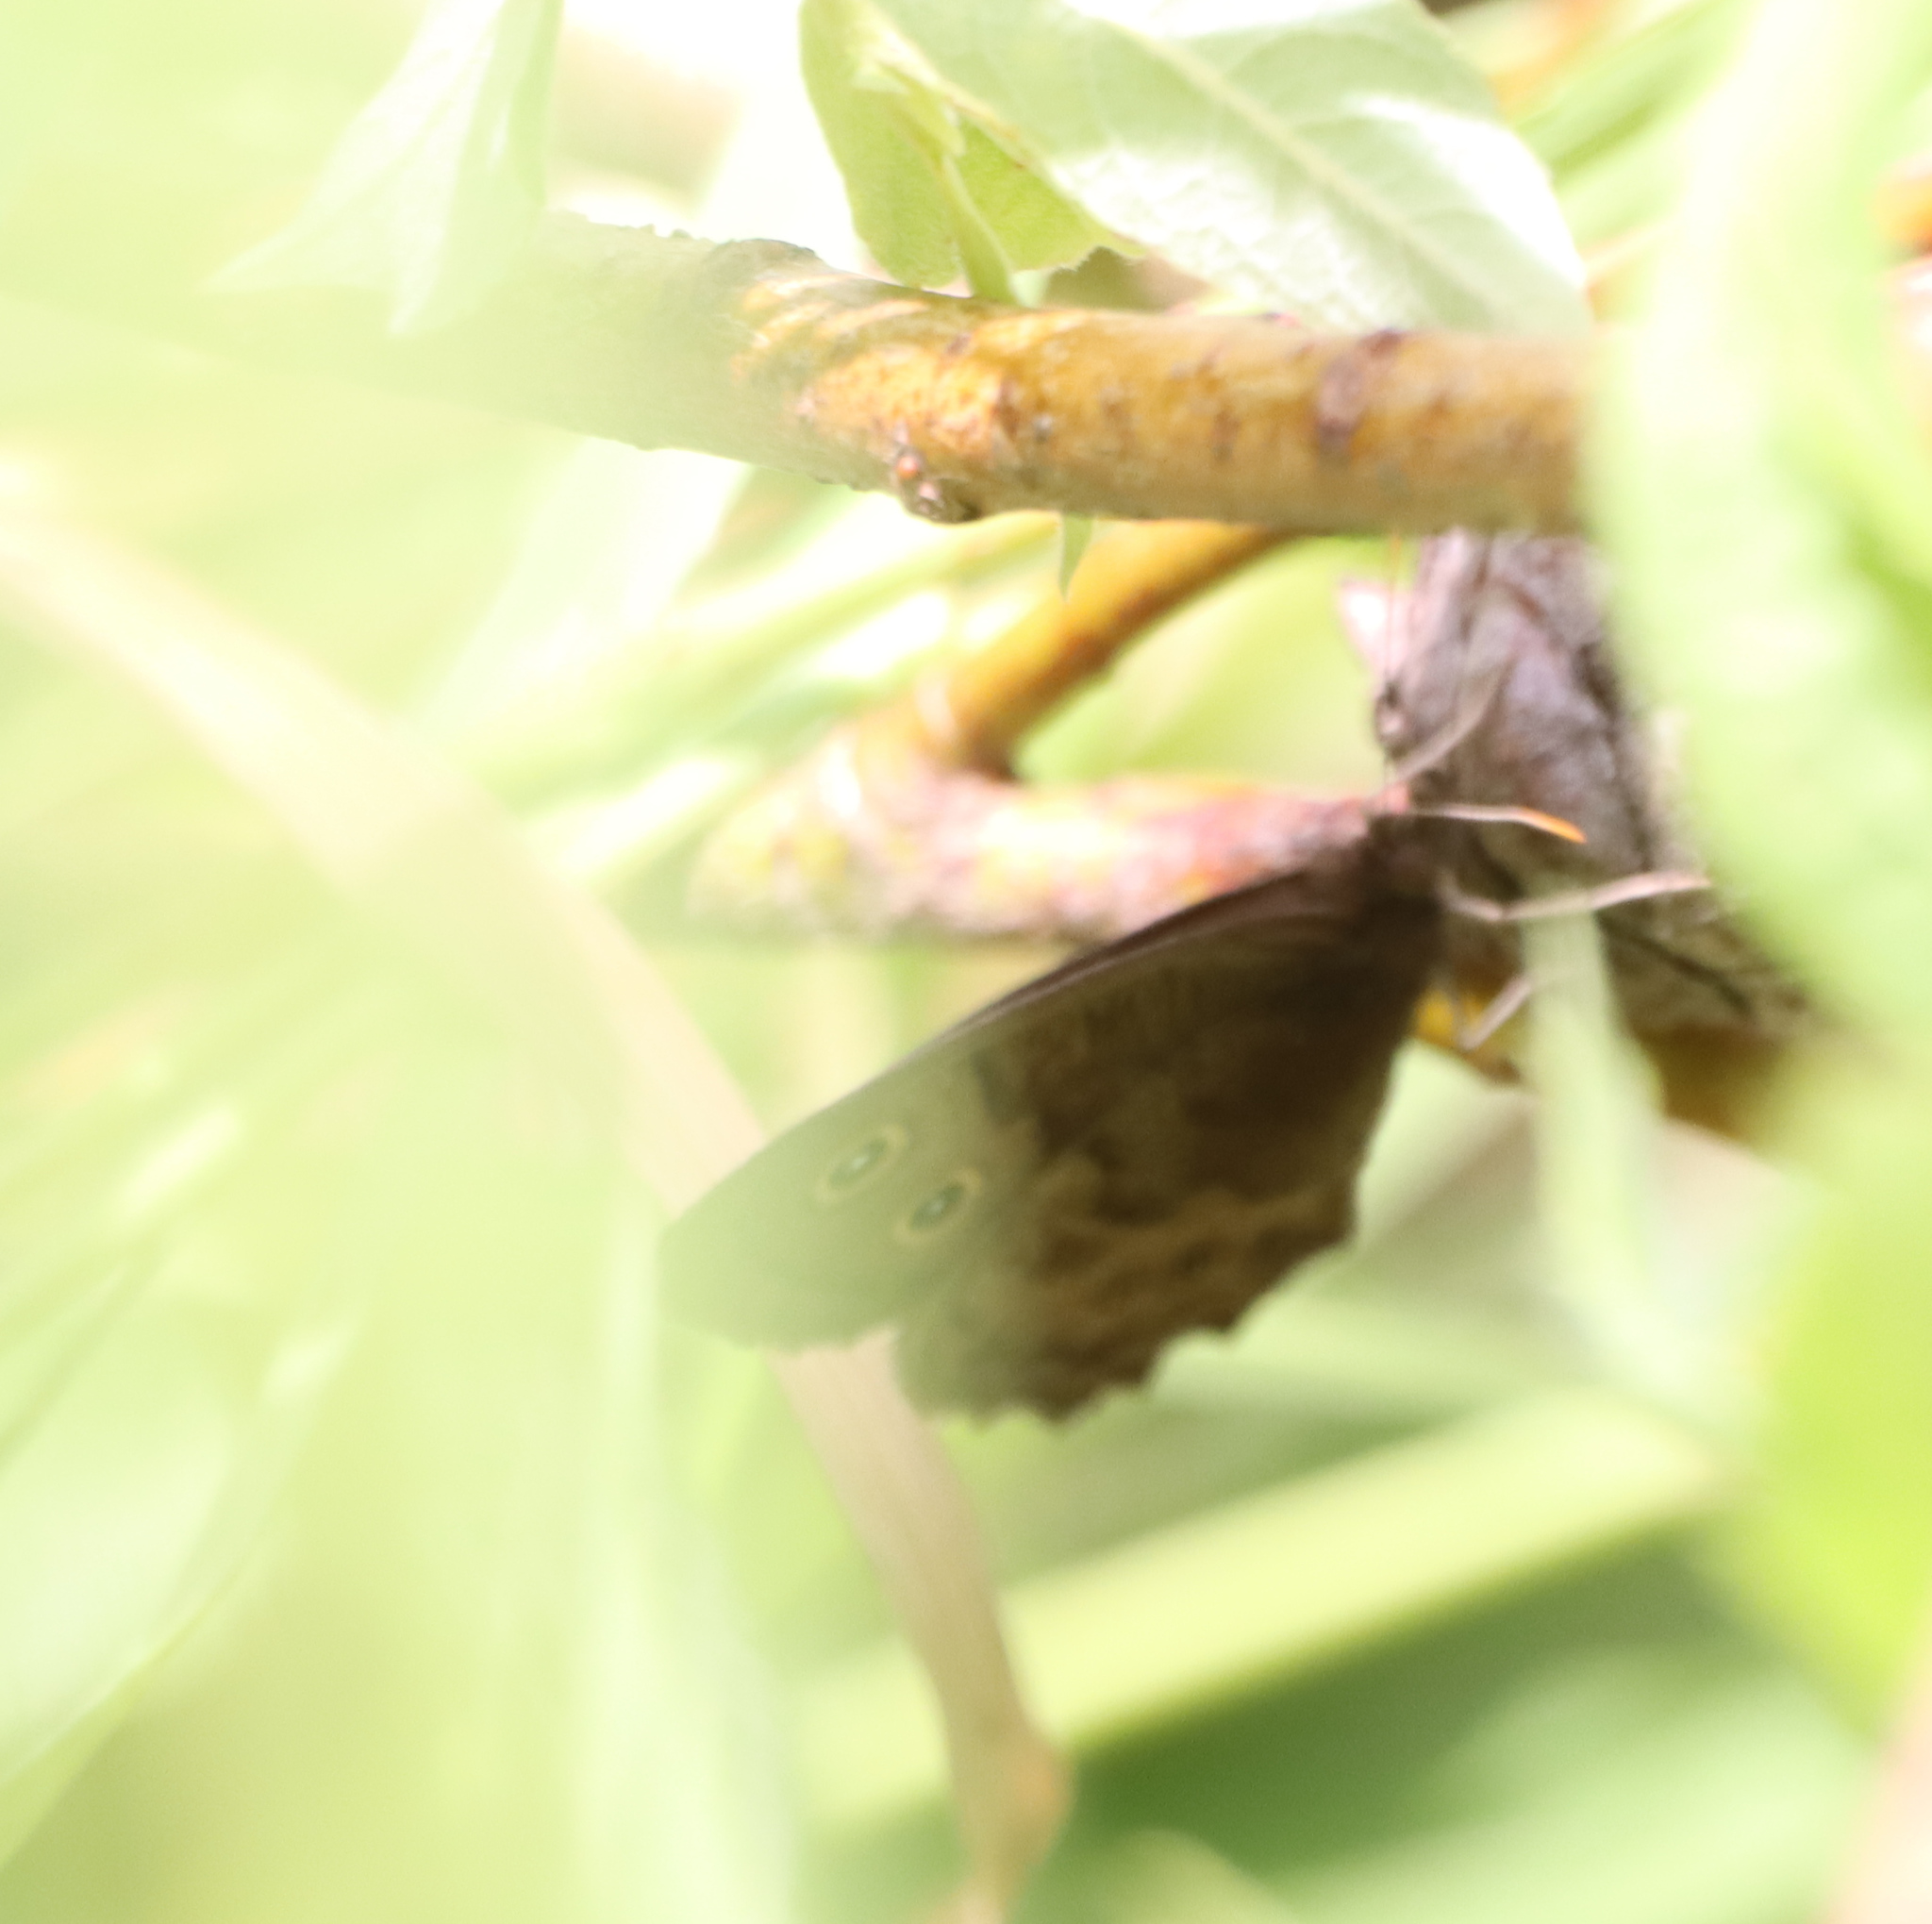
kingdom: Animalia
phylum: Arthropoda
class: Insecta
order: Lepidoptera
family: Nymphalidae
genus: Cercyonis
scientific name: Cercyonis pegala
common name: Common wood-nymph
